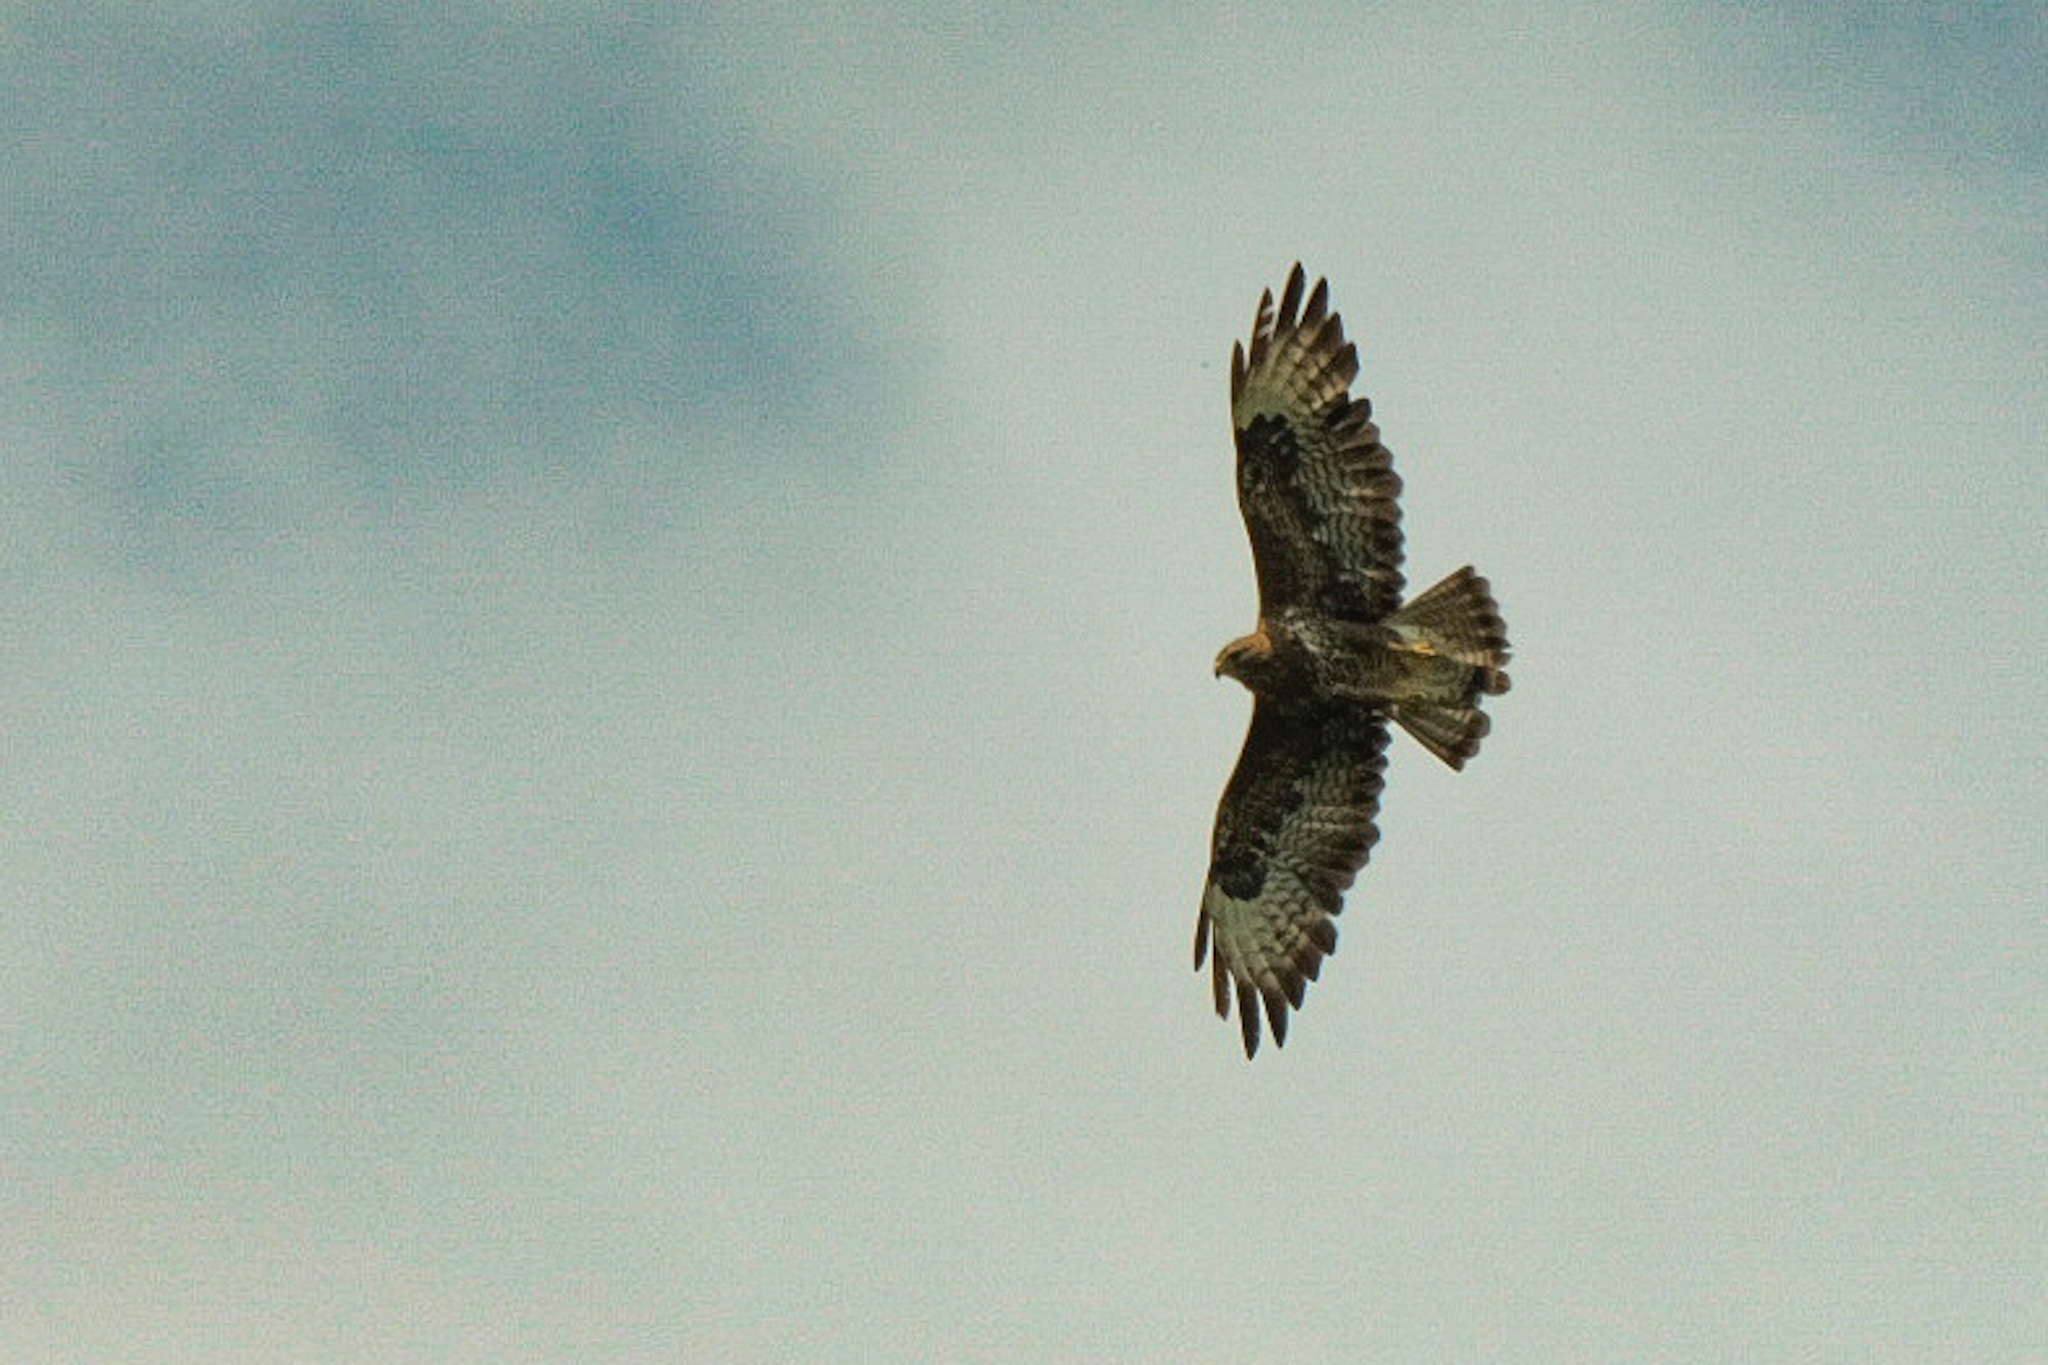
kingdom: Animalia
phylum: Chordata
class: Aves
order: Accipitriformes
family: Accipitridae
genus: Buteo
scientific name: Buteo buteo
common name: Common buzzard
